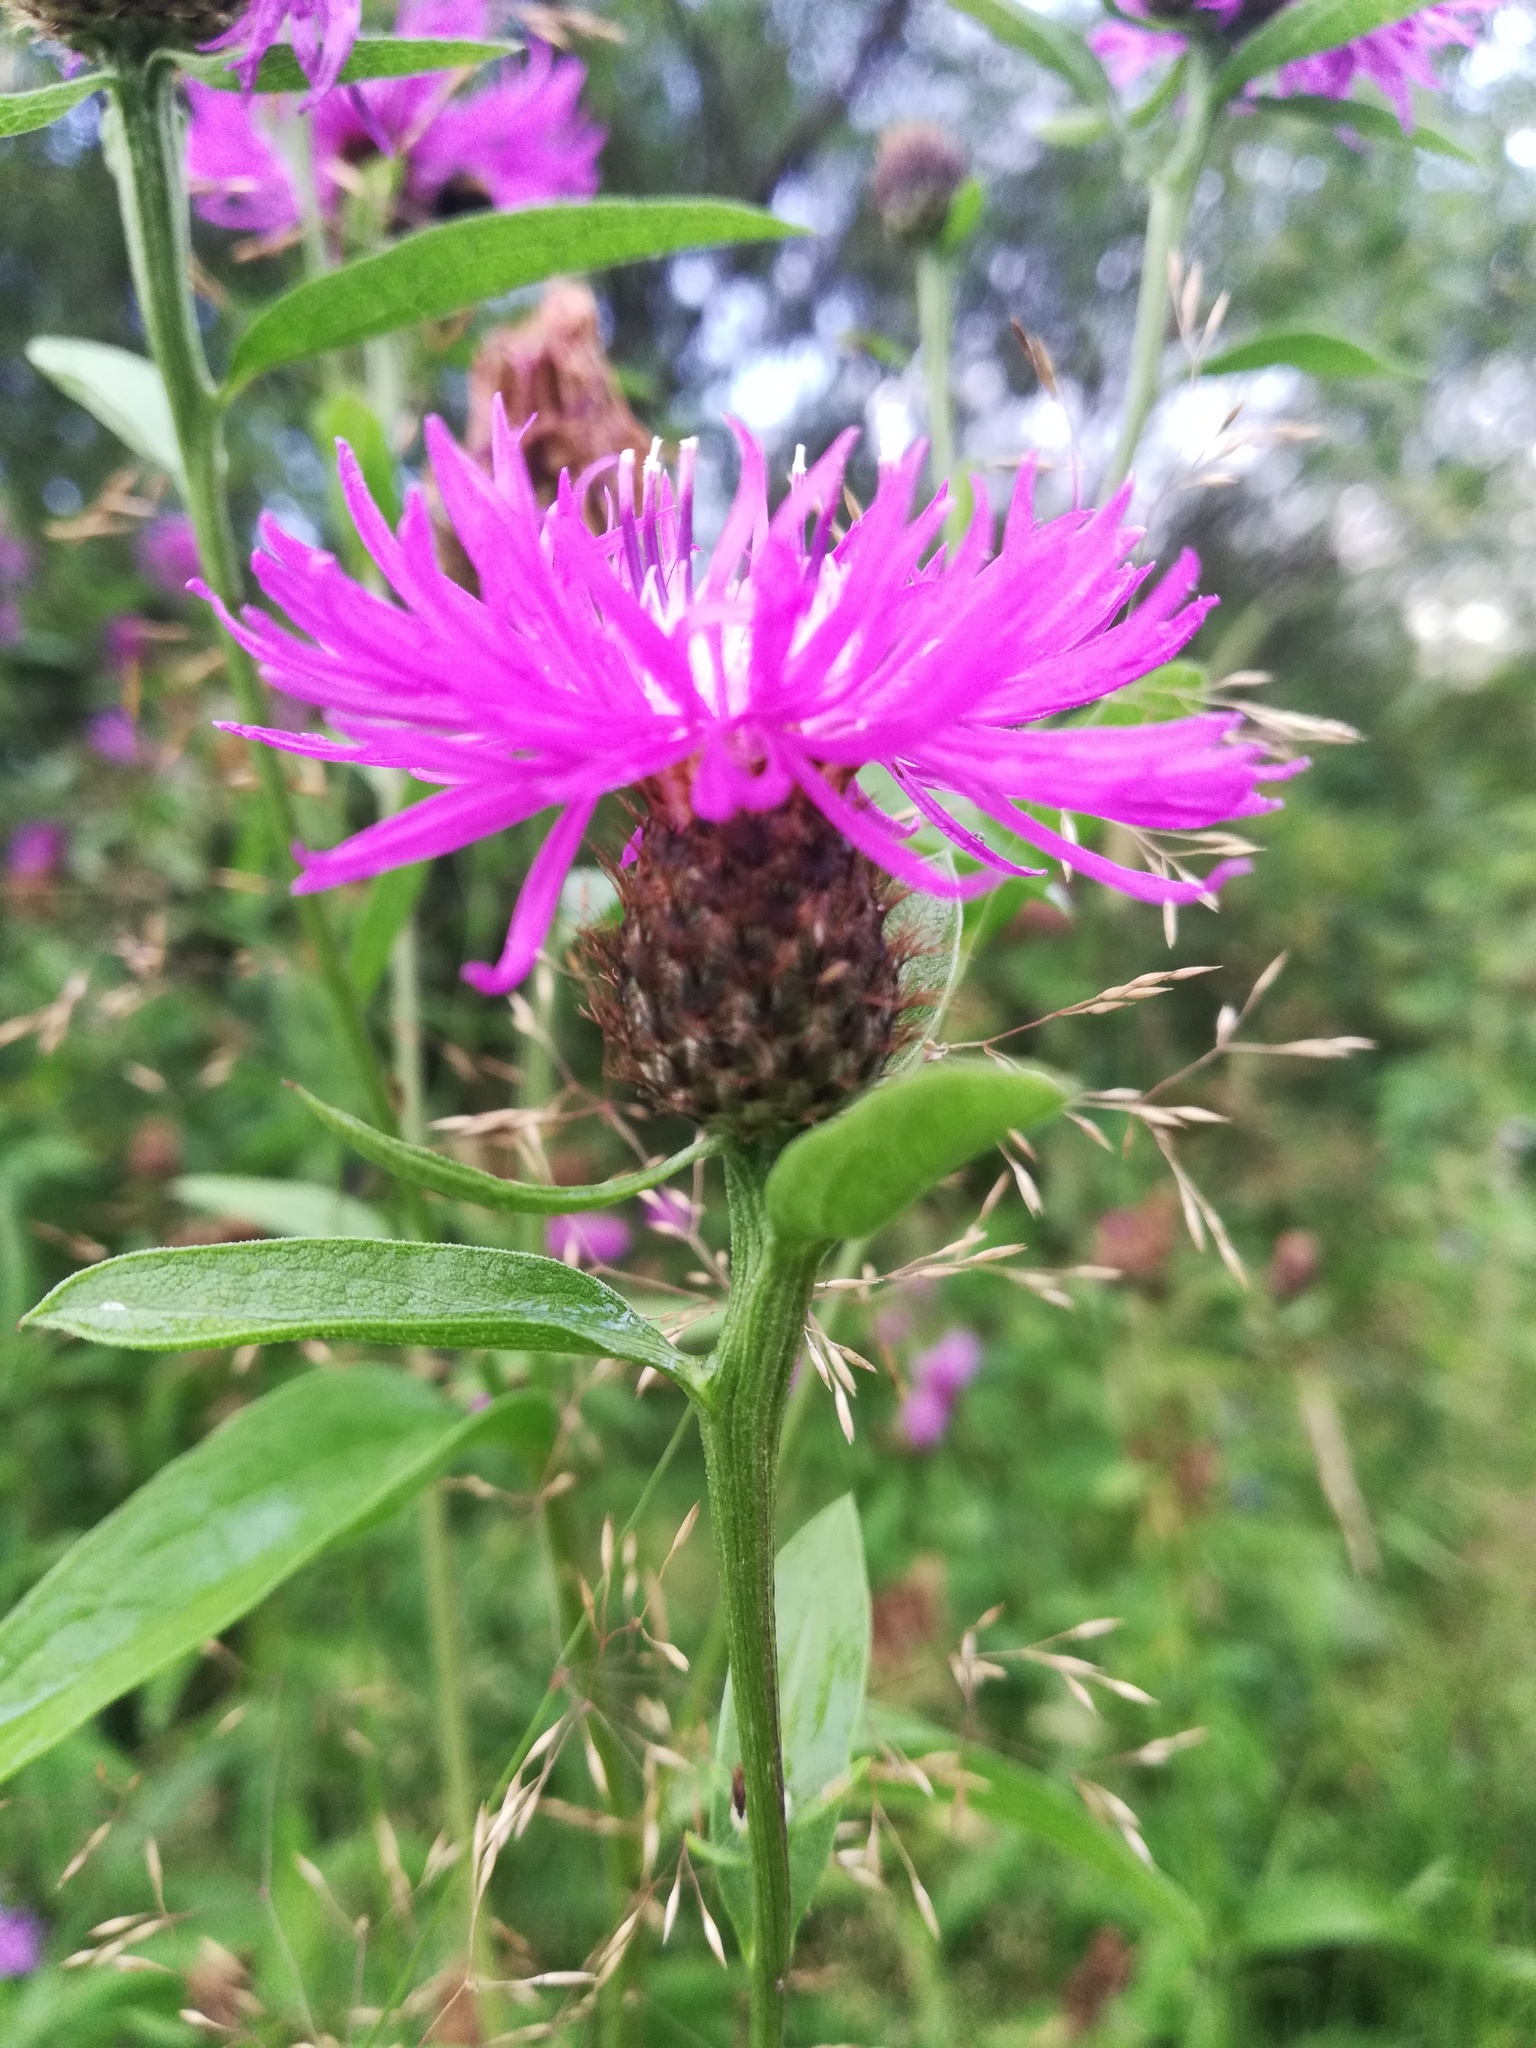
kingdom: Plantae
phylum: Tracheophyta
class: Magnoliopsida
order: Asterales
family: Asteraceae
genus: Centaurea
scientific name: Centaurea phrygia
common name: Wig knapweed
